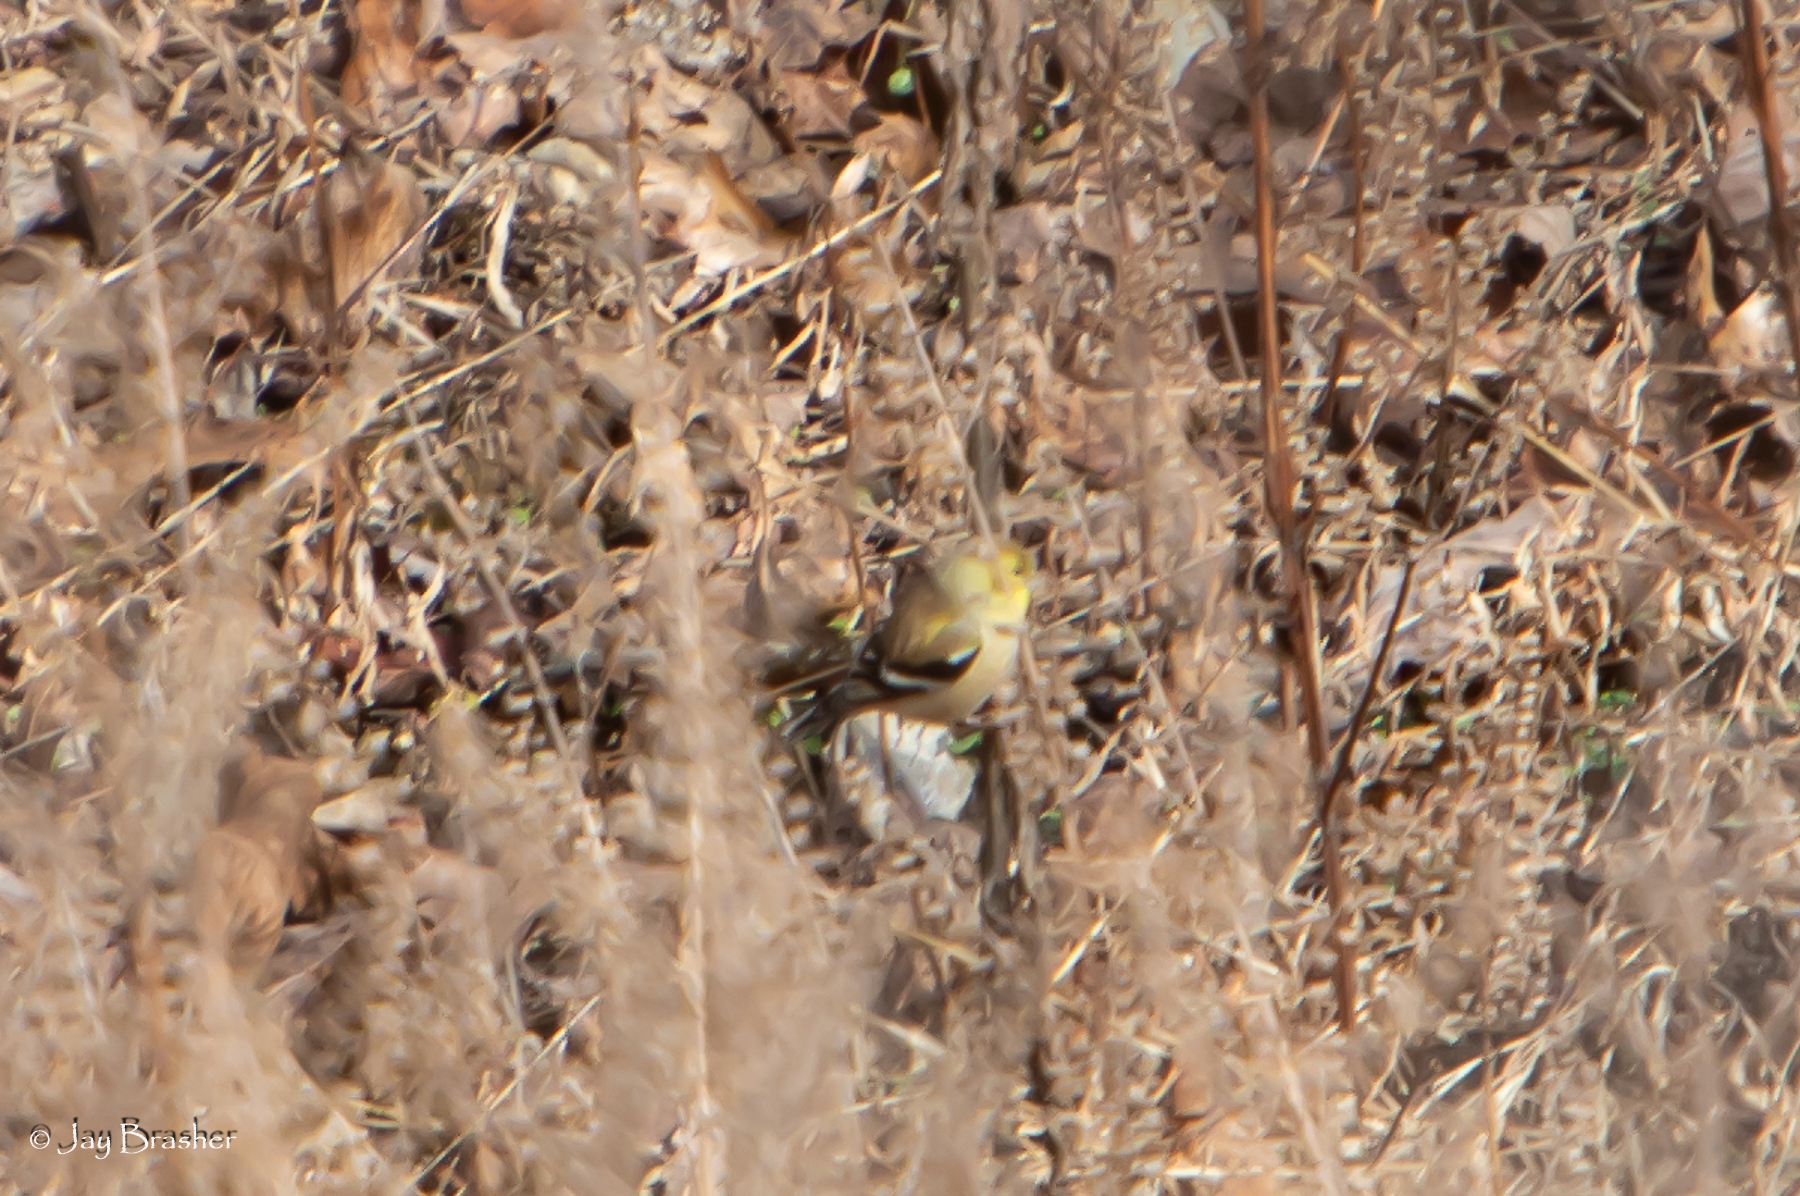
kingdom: Animalia
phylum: Chordata
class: Aves
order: Passeriformes
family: Fringillidae
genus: Spinus
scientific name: Spinus tristis
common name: American goldfinch
